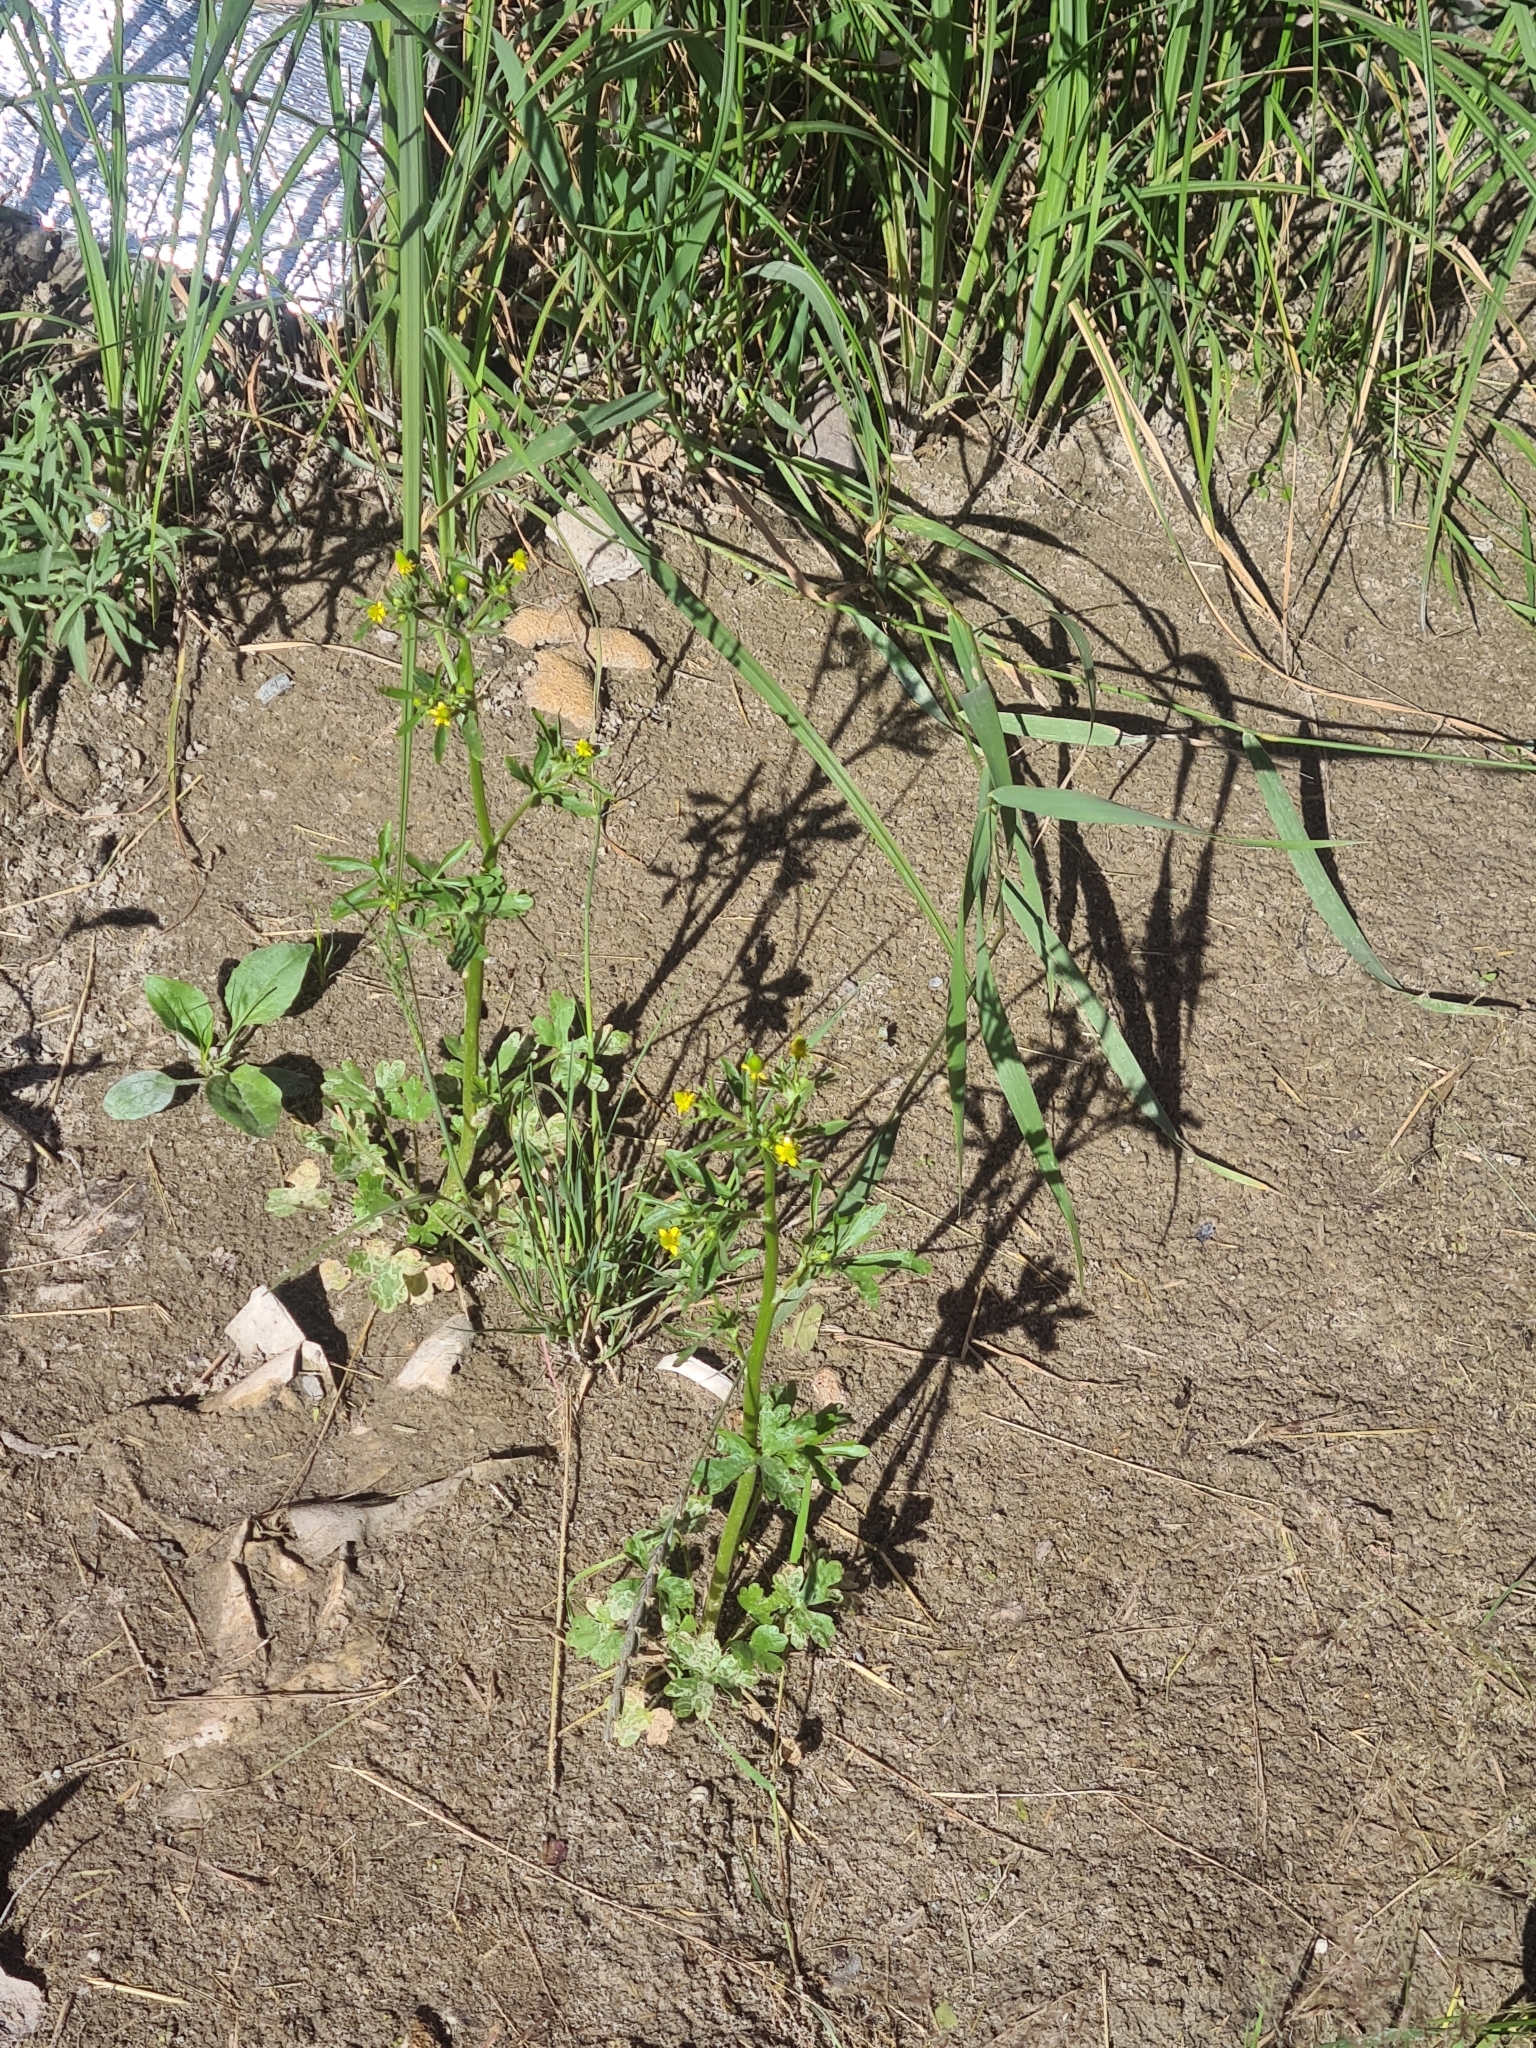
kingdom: Plantae
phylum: Tracheophyta
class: Magnoliopsida
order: Ranunculales
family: Ranunculaceae
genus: Ranunculus
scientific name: Ranunculus sceleratus
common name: Celery-leaved buttercup
